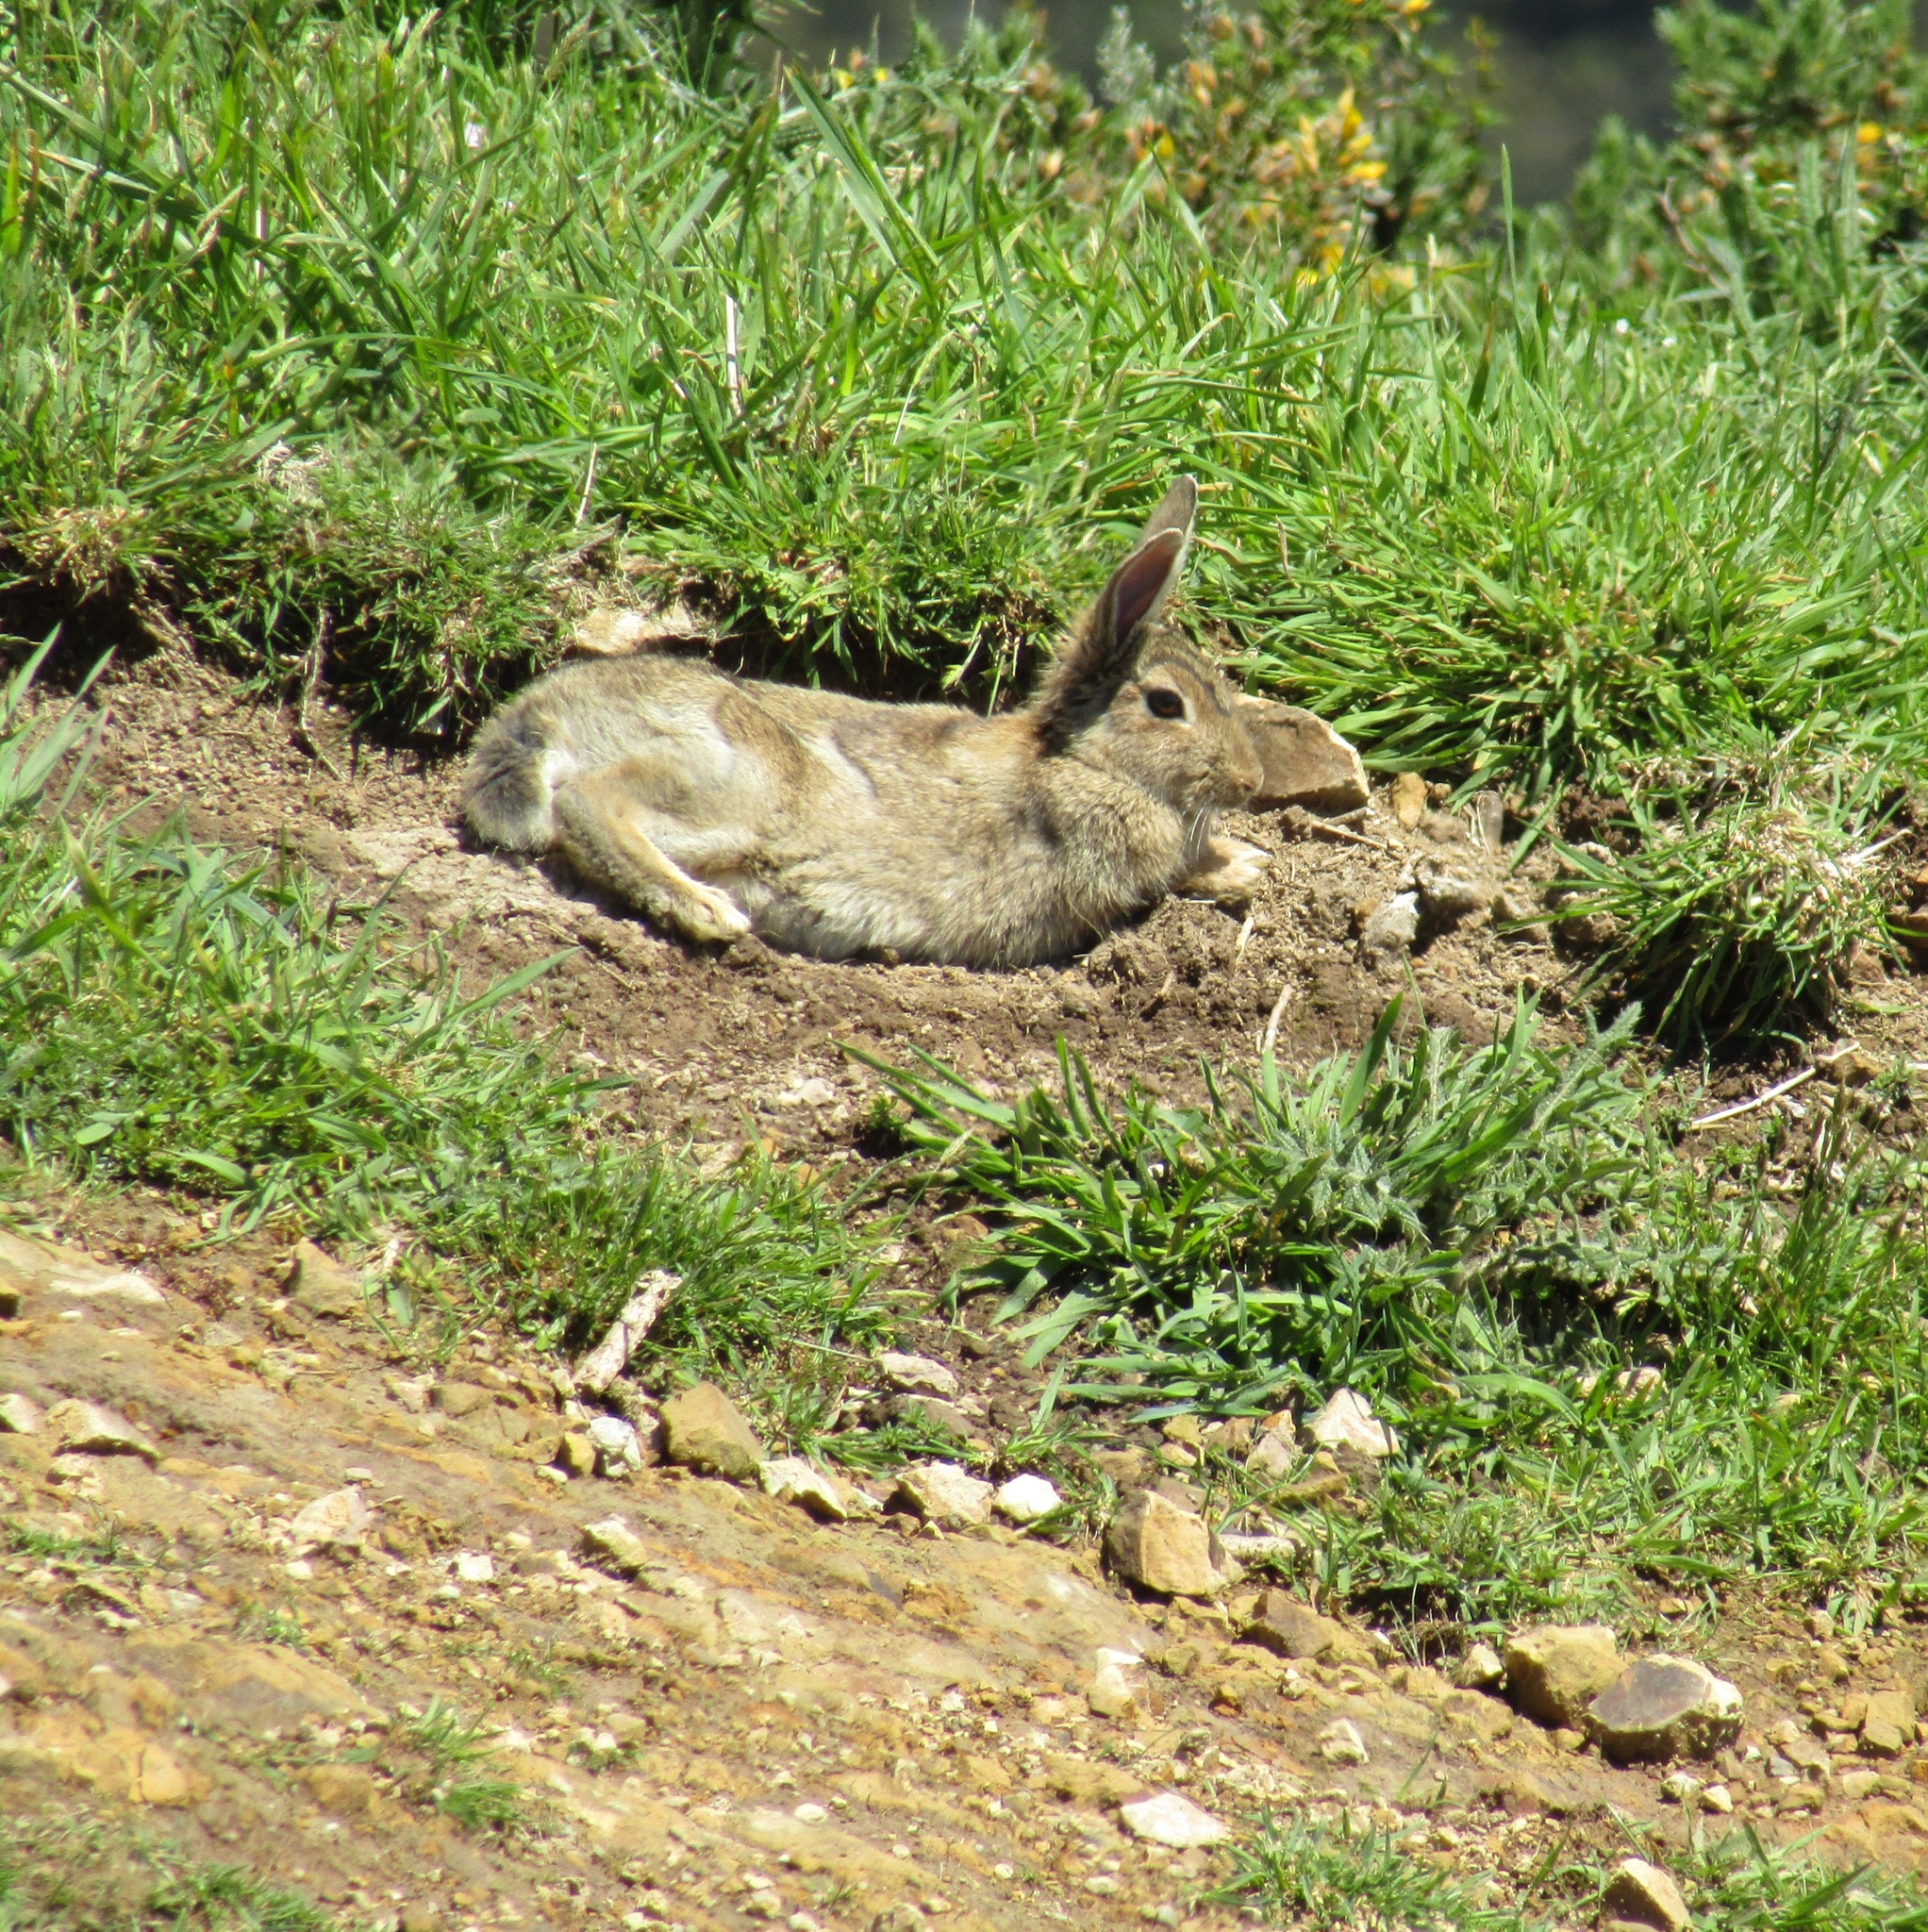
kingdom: Animalia
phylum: Chordata
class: Mammalia
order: Lagomorpha
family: Leporidae
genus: Oryctolagus
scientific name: Oryctolagus cuniculus
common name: European rabbit
